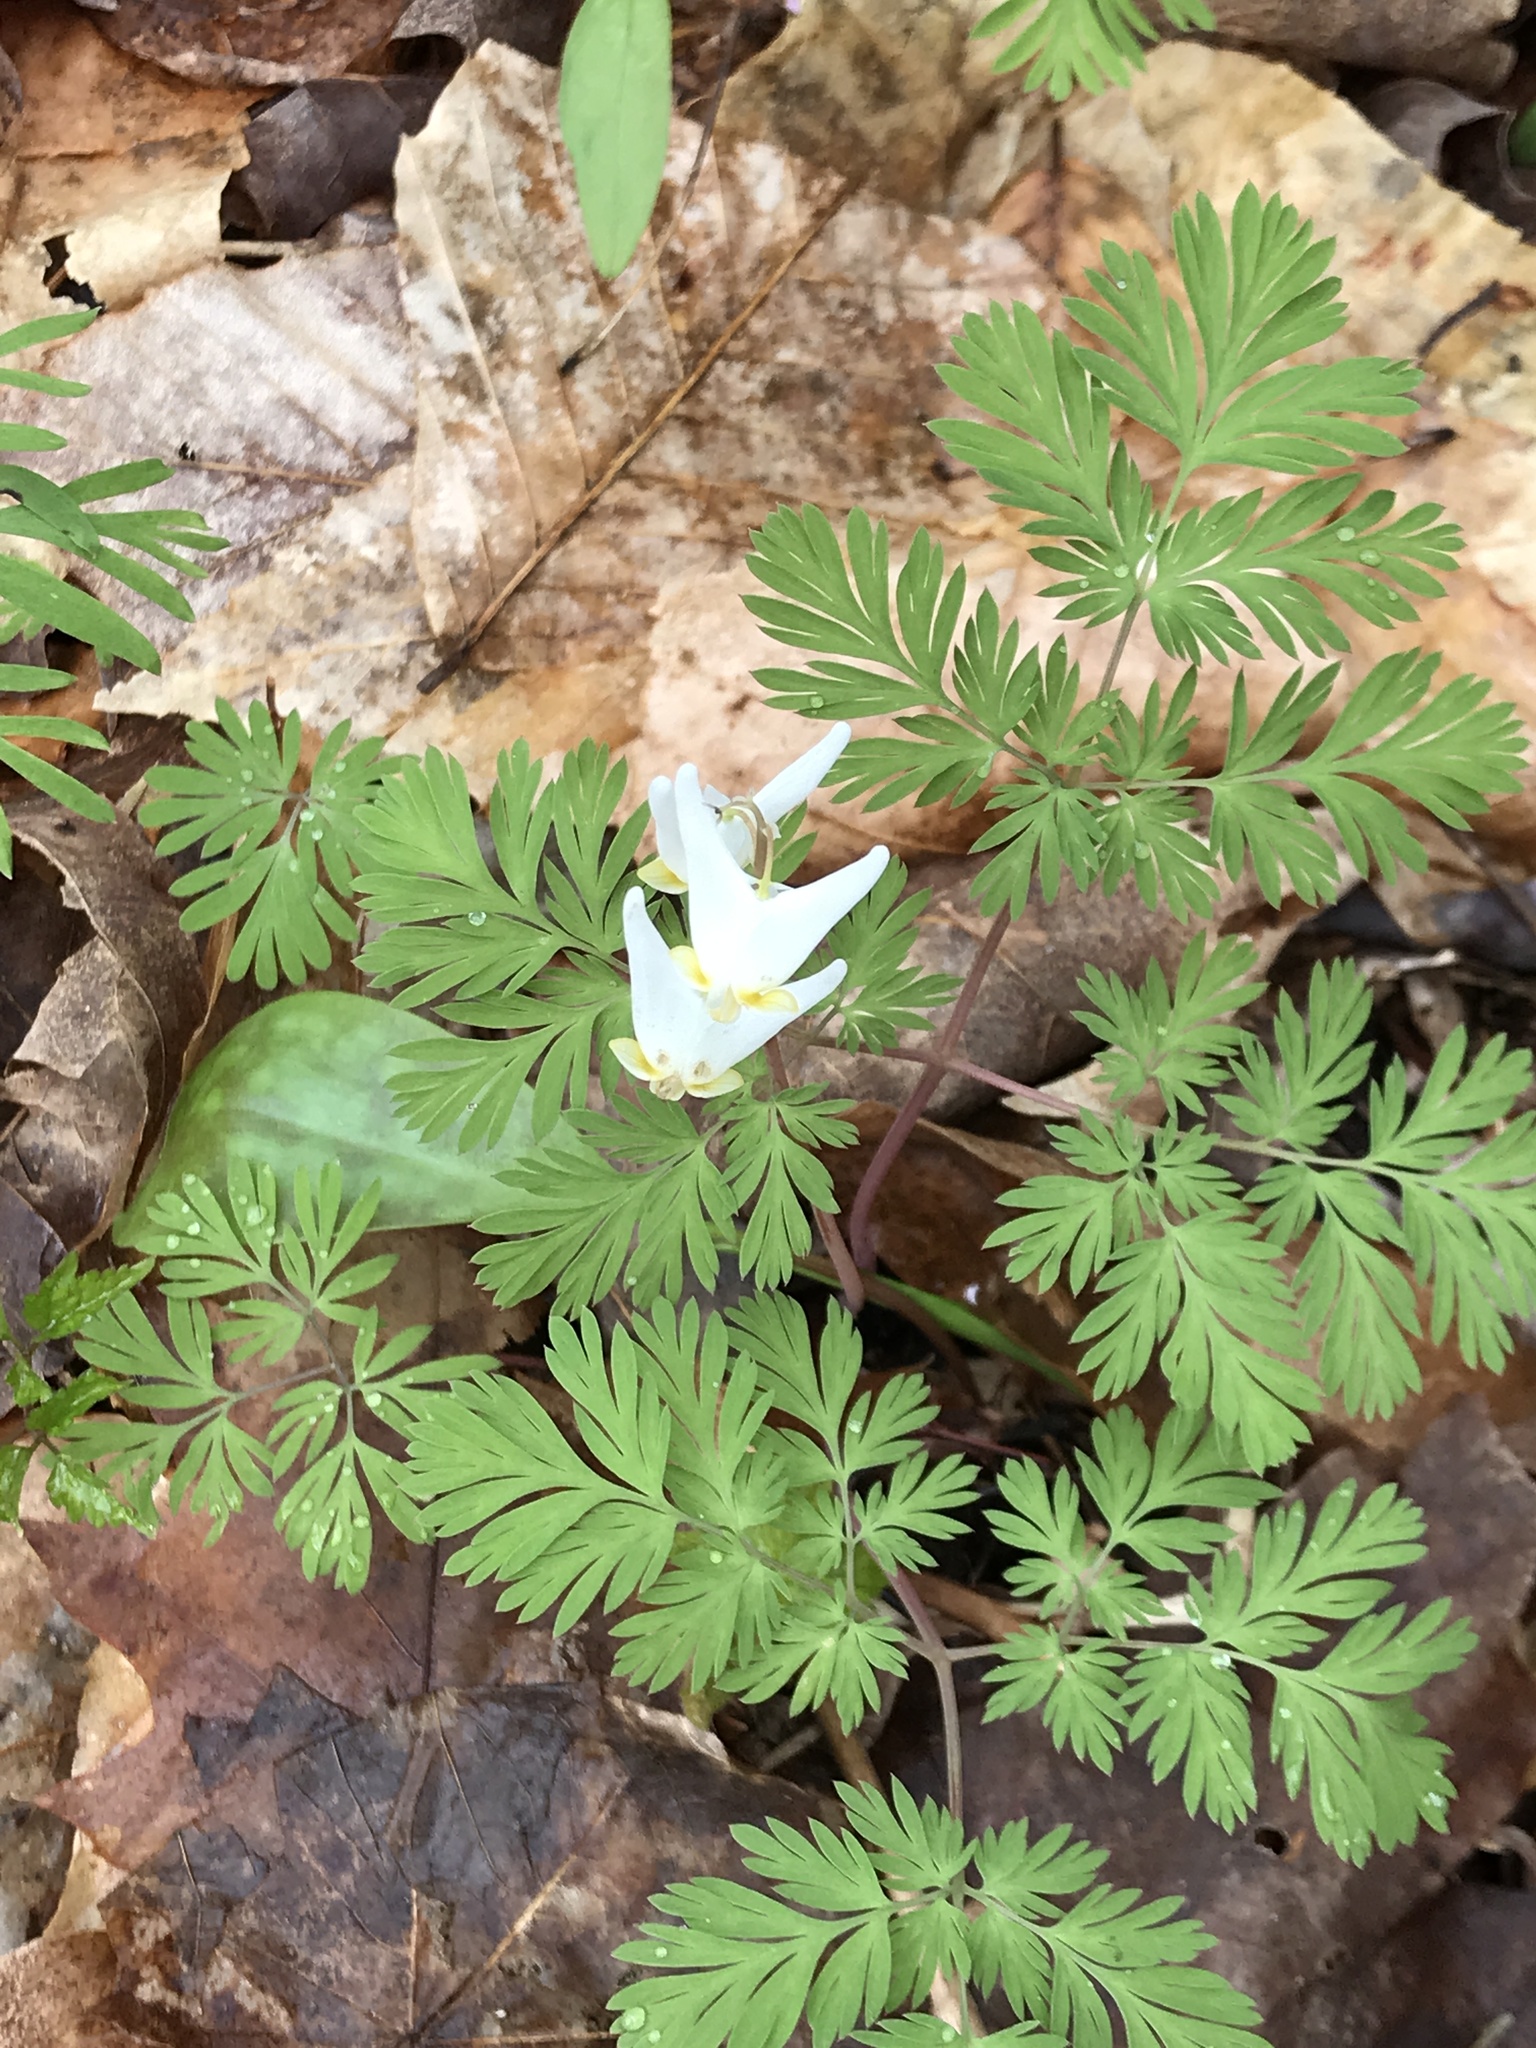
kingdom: Plantae
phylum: Tracheophyta
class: Magnoliopsida
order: Ranunculales
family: Papaveraceae
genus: Dicentra
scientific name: Dicentra cucullaria
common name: Dutchman's breeches
